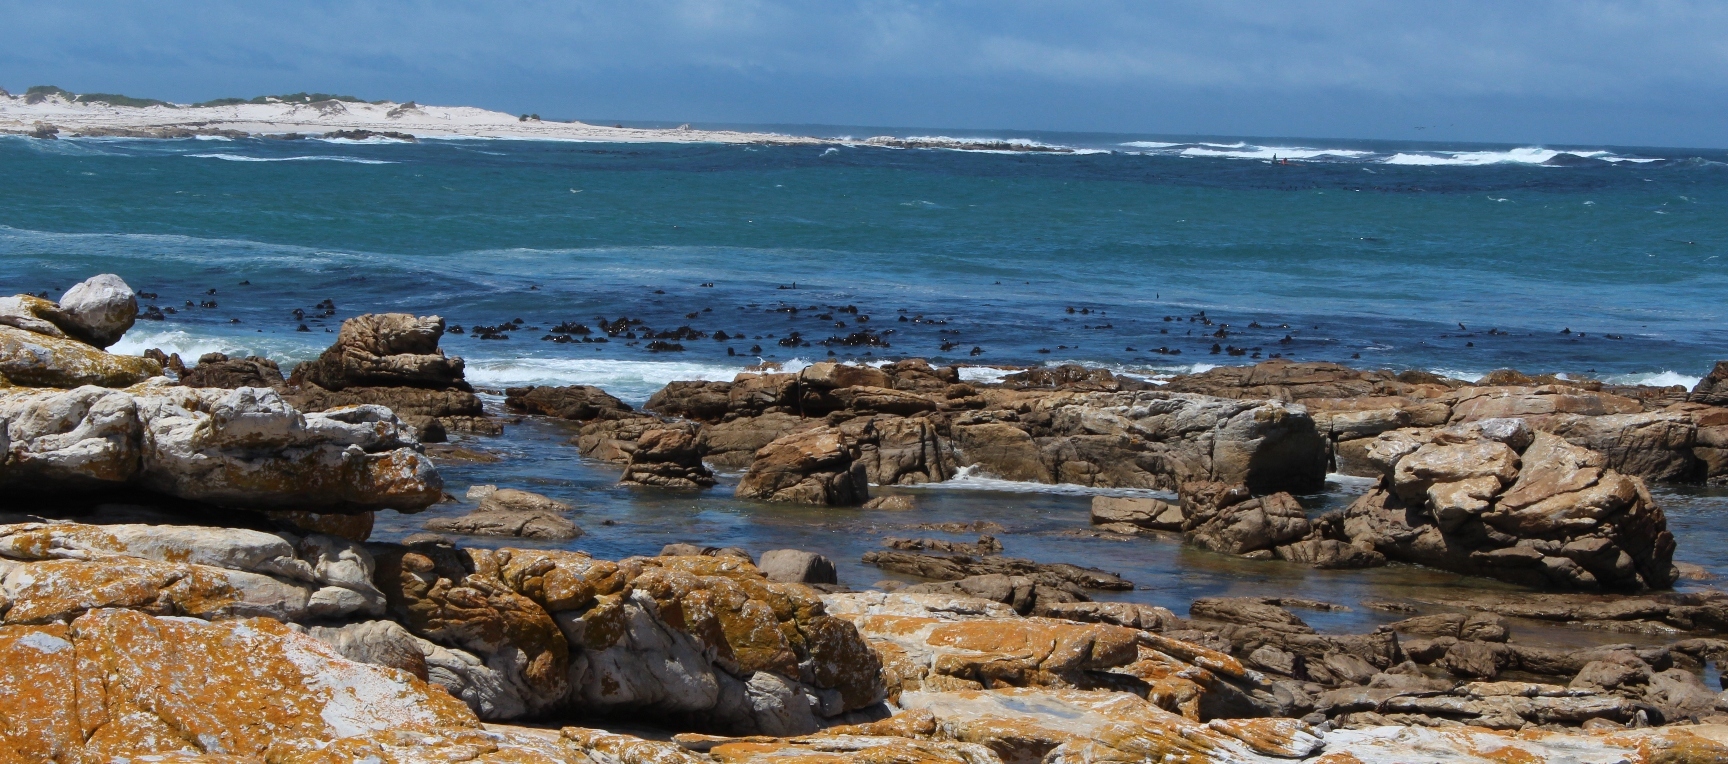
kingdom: Chromista
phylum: Ochrophyta
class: Phaeophyceae
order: Laminariales
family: Lessoniaceae
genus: Ecklonia
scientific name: Ecklonia
